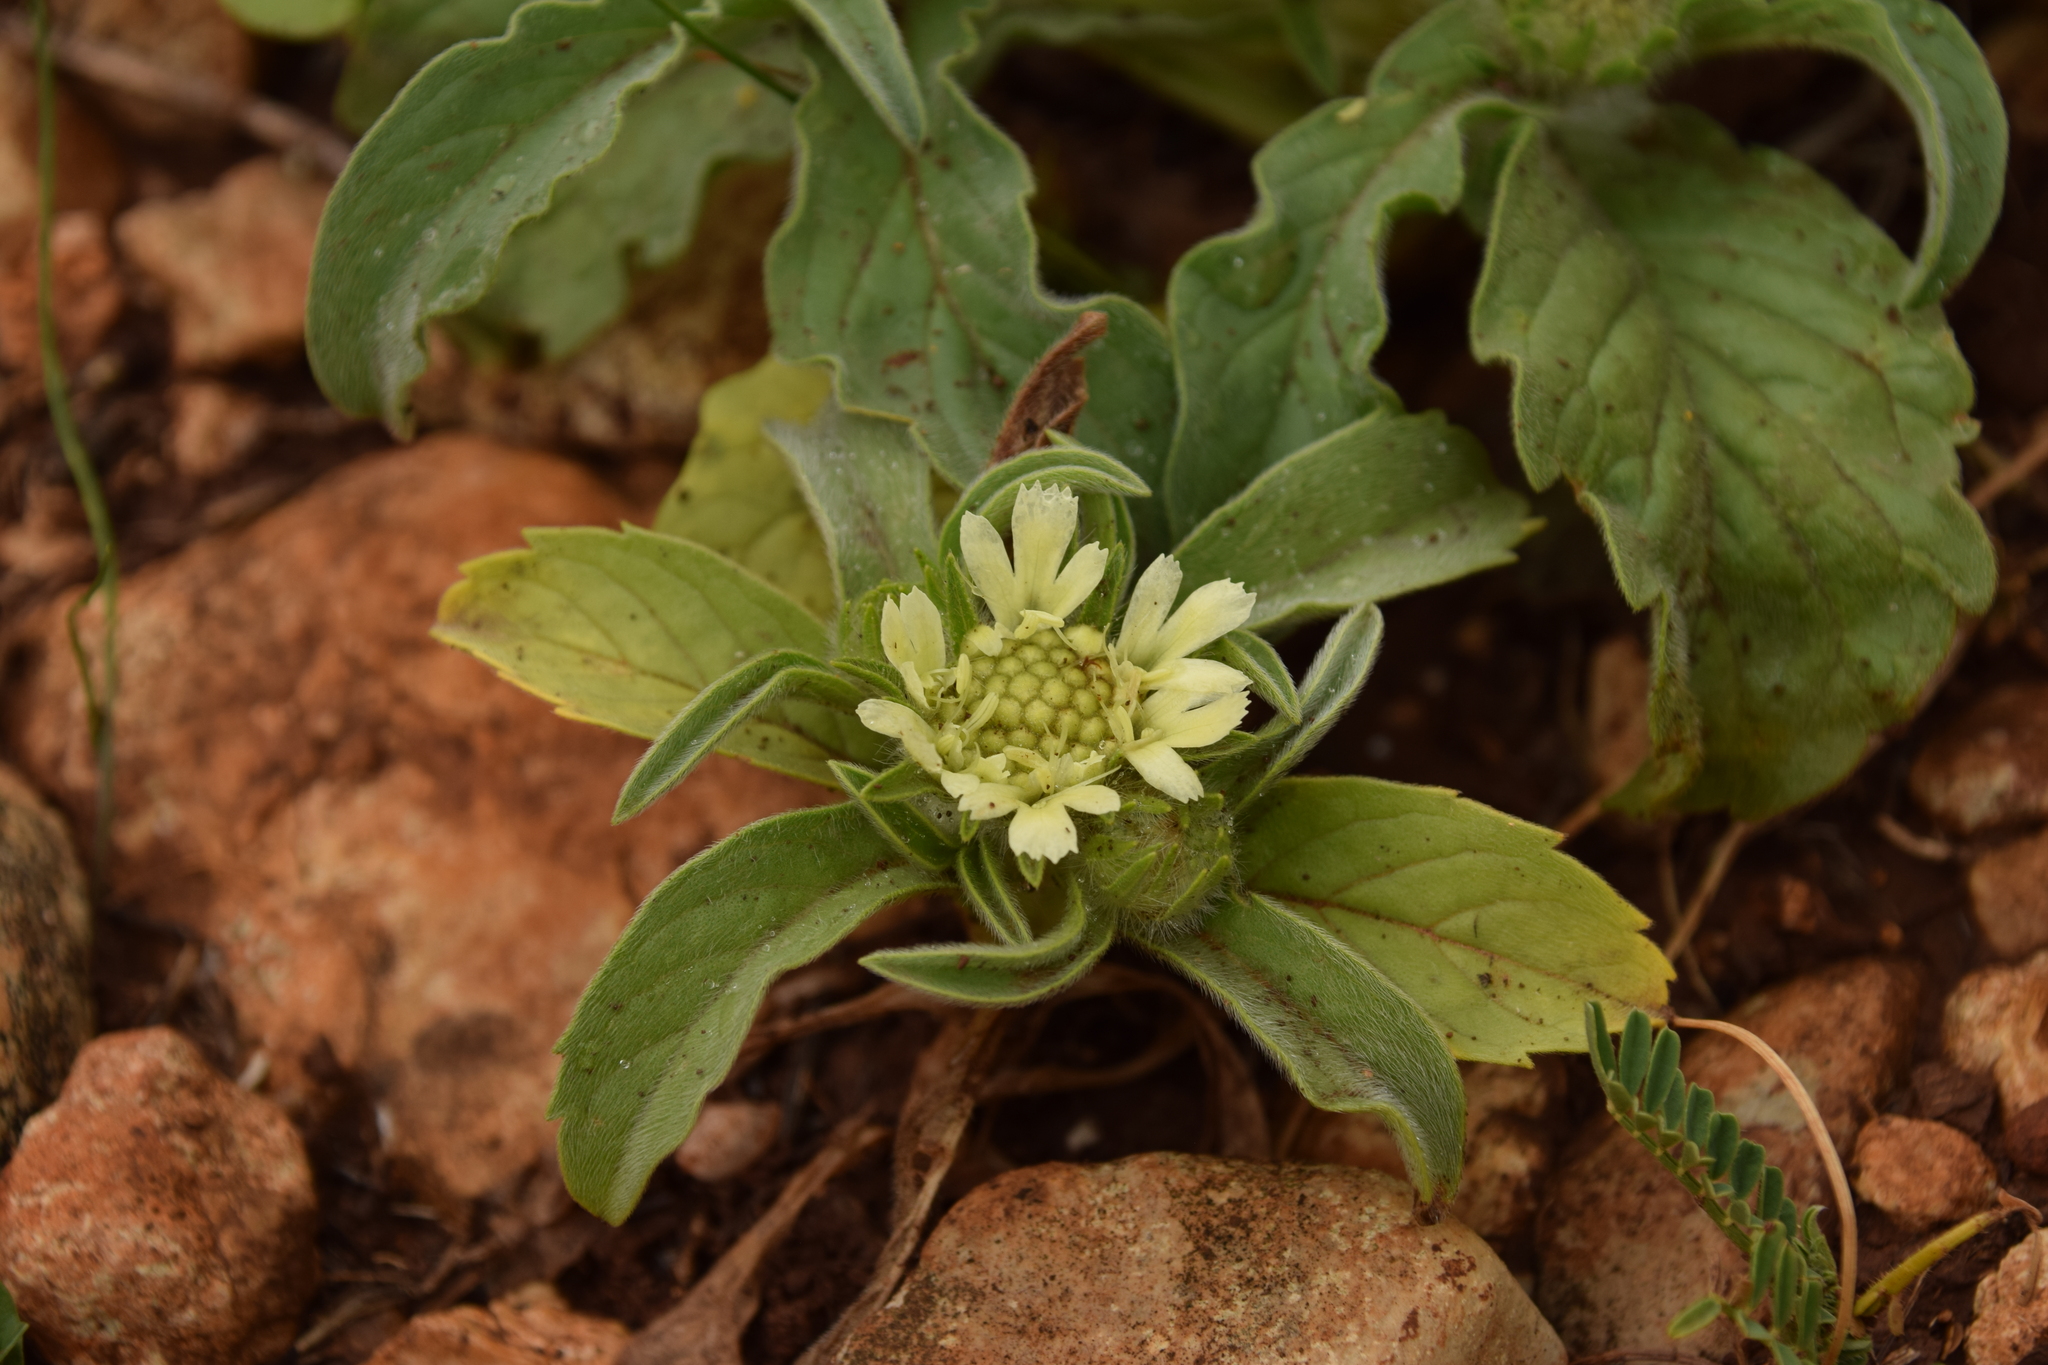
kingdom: Plantae
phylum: Tracheophyta
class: Magnoliopsida
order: Dipsacales
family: Caprifoliaceae
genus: Lomelosia
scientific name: Lomelosia prolifera
